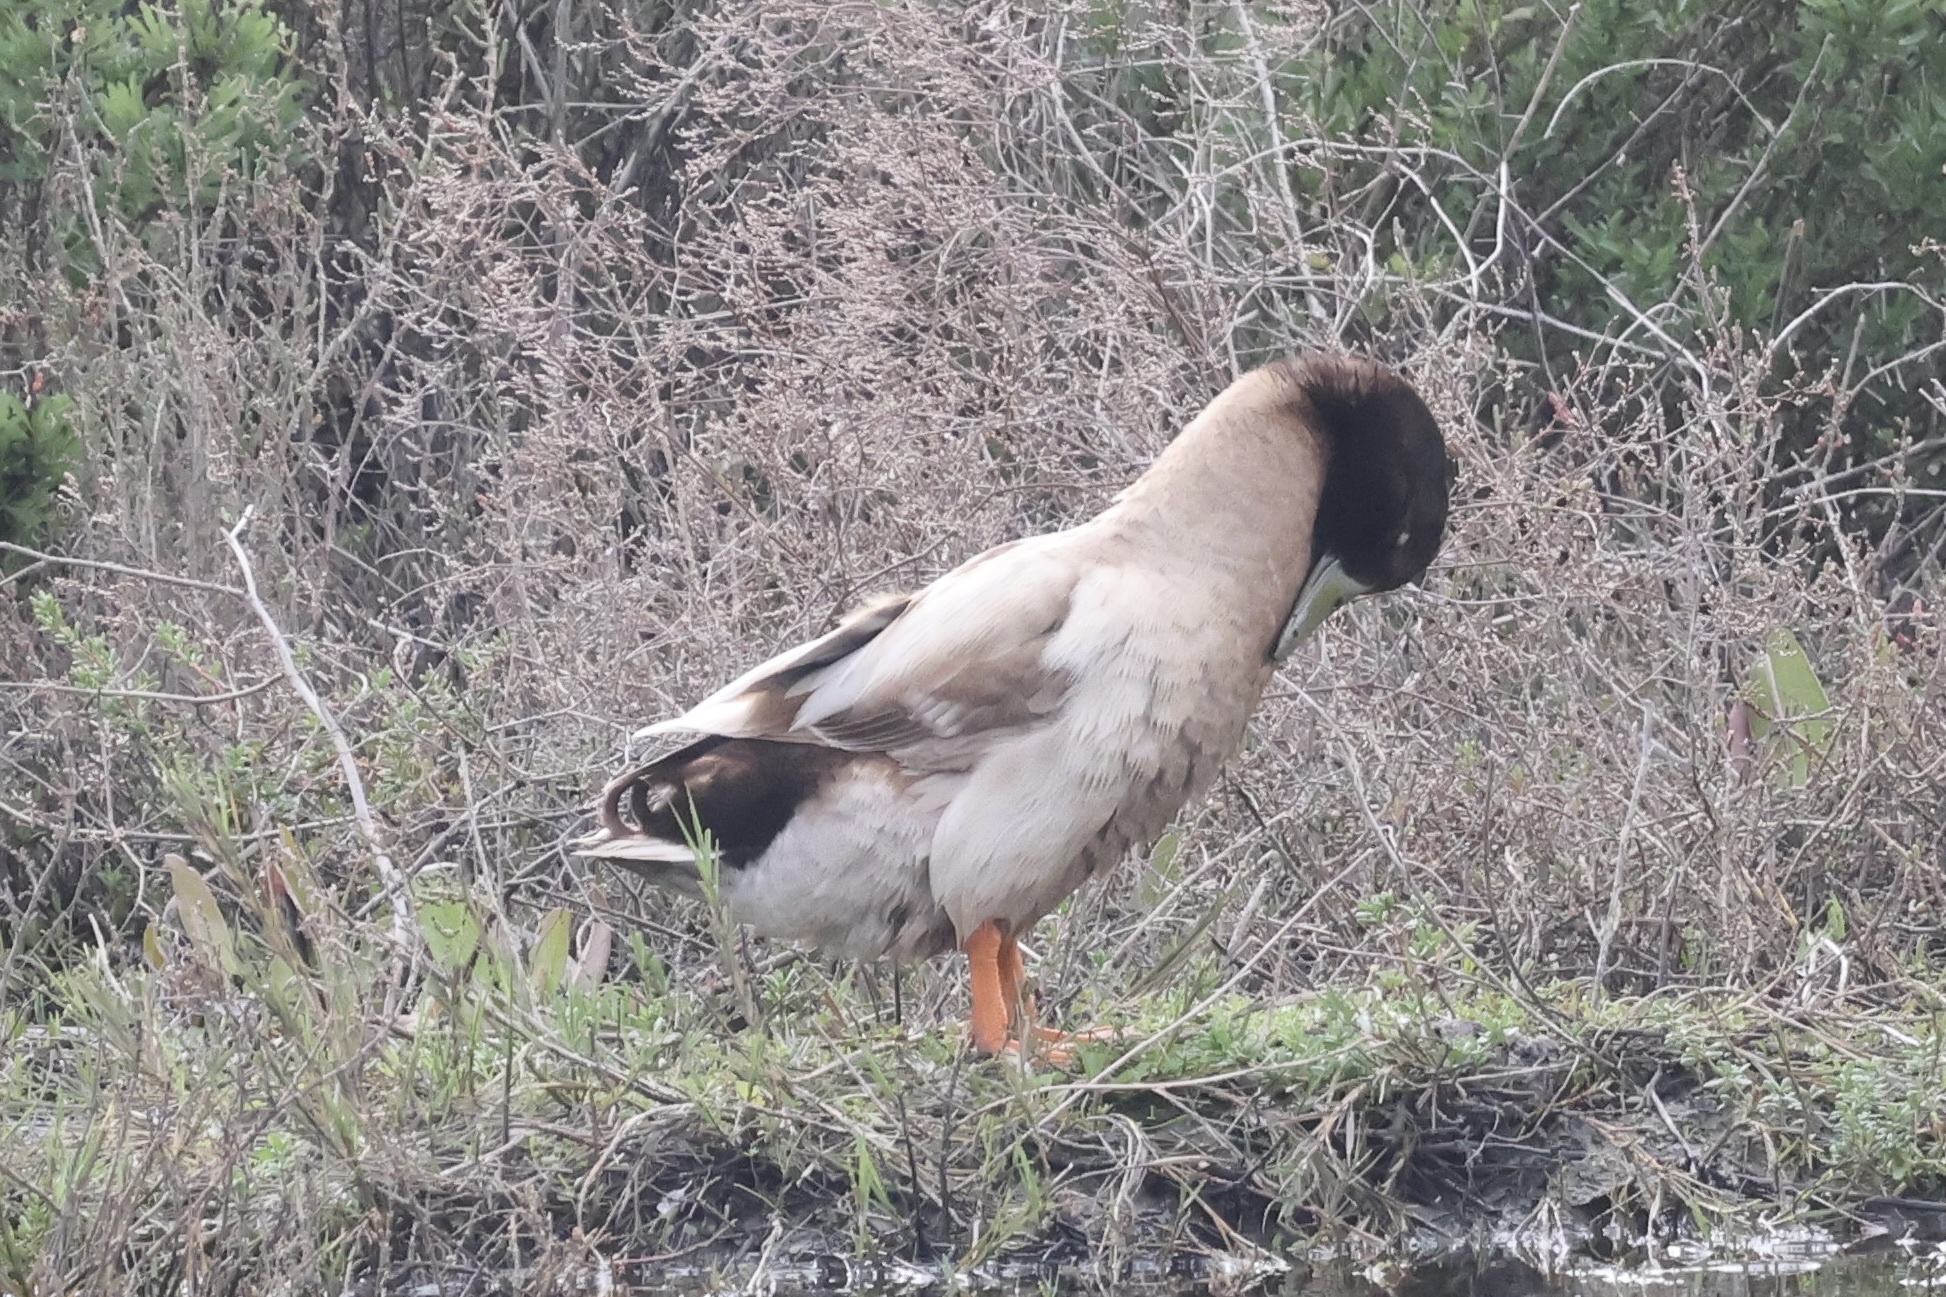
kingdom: Animalia
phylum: Chordata
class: Aves
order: Anseriformes
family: Anatidae
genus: Anas
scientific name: Anas platyrhynchos
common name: Mallard
